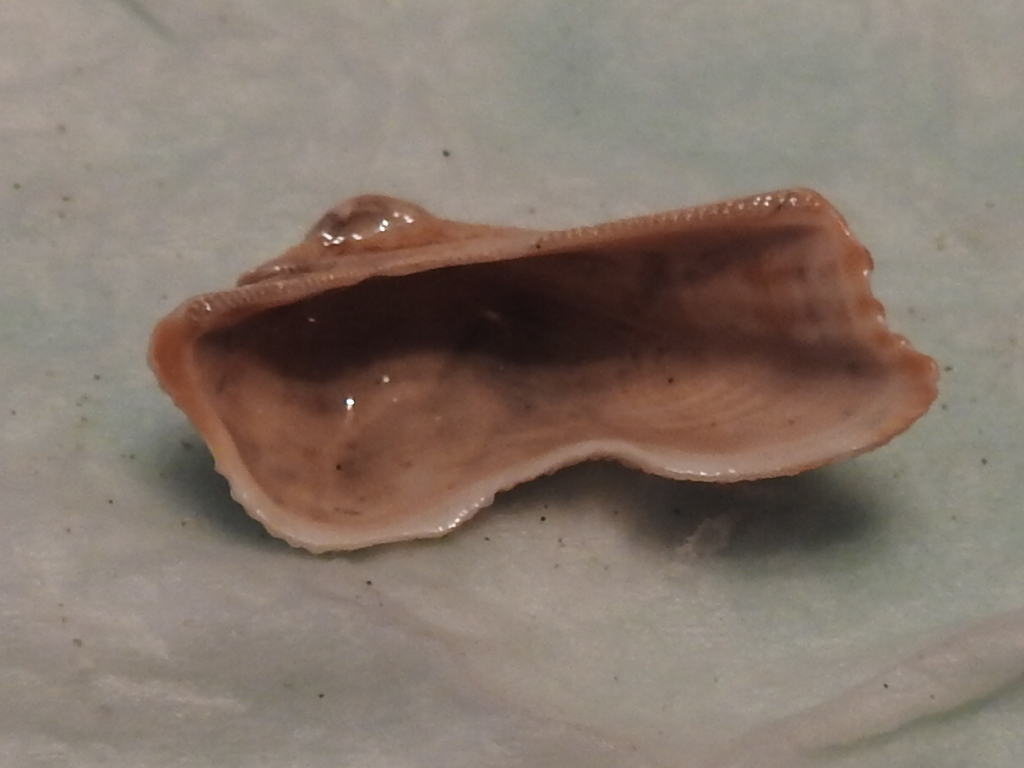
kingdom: Animalia
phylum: Mollusca
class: Bivalvia
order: Arcida
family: Arcidae
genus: Lamarcka
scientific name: Lamarcka imbricata
